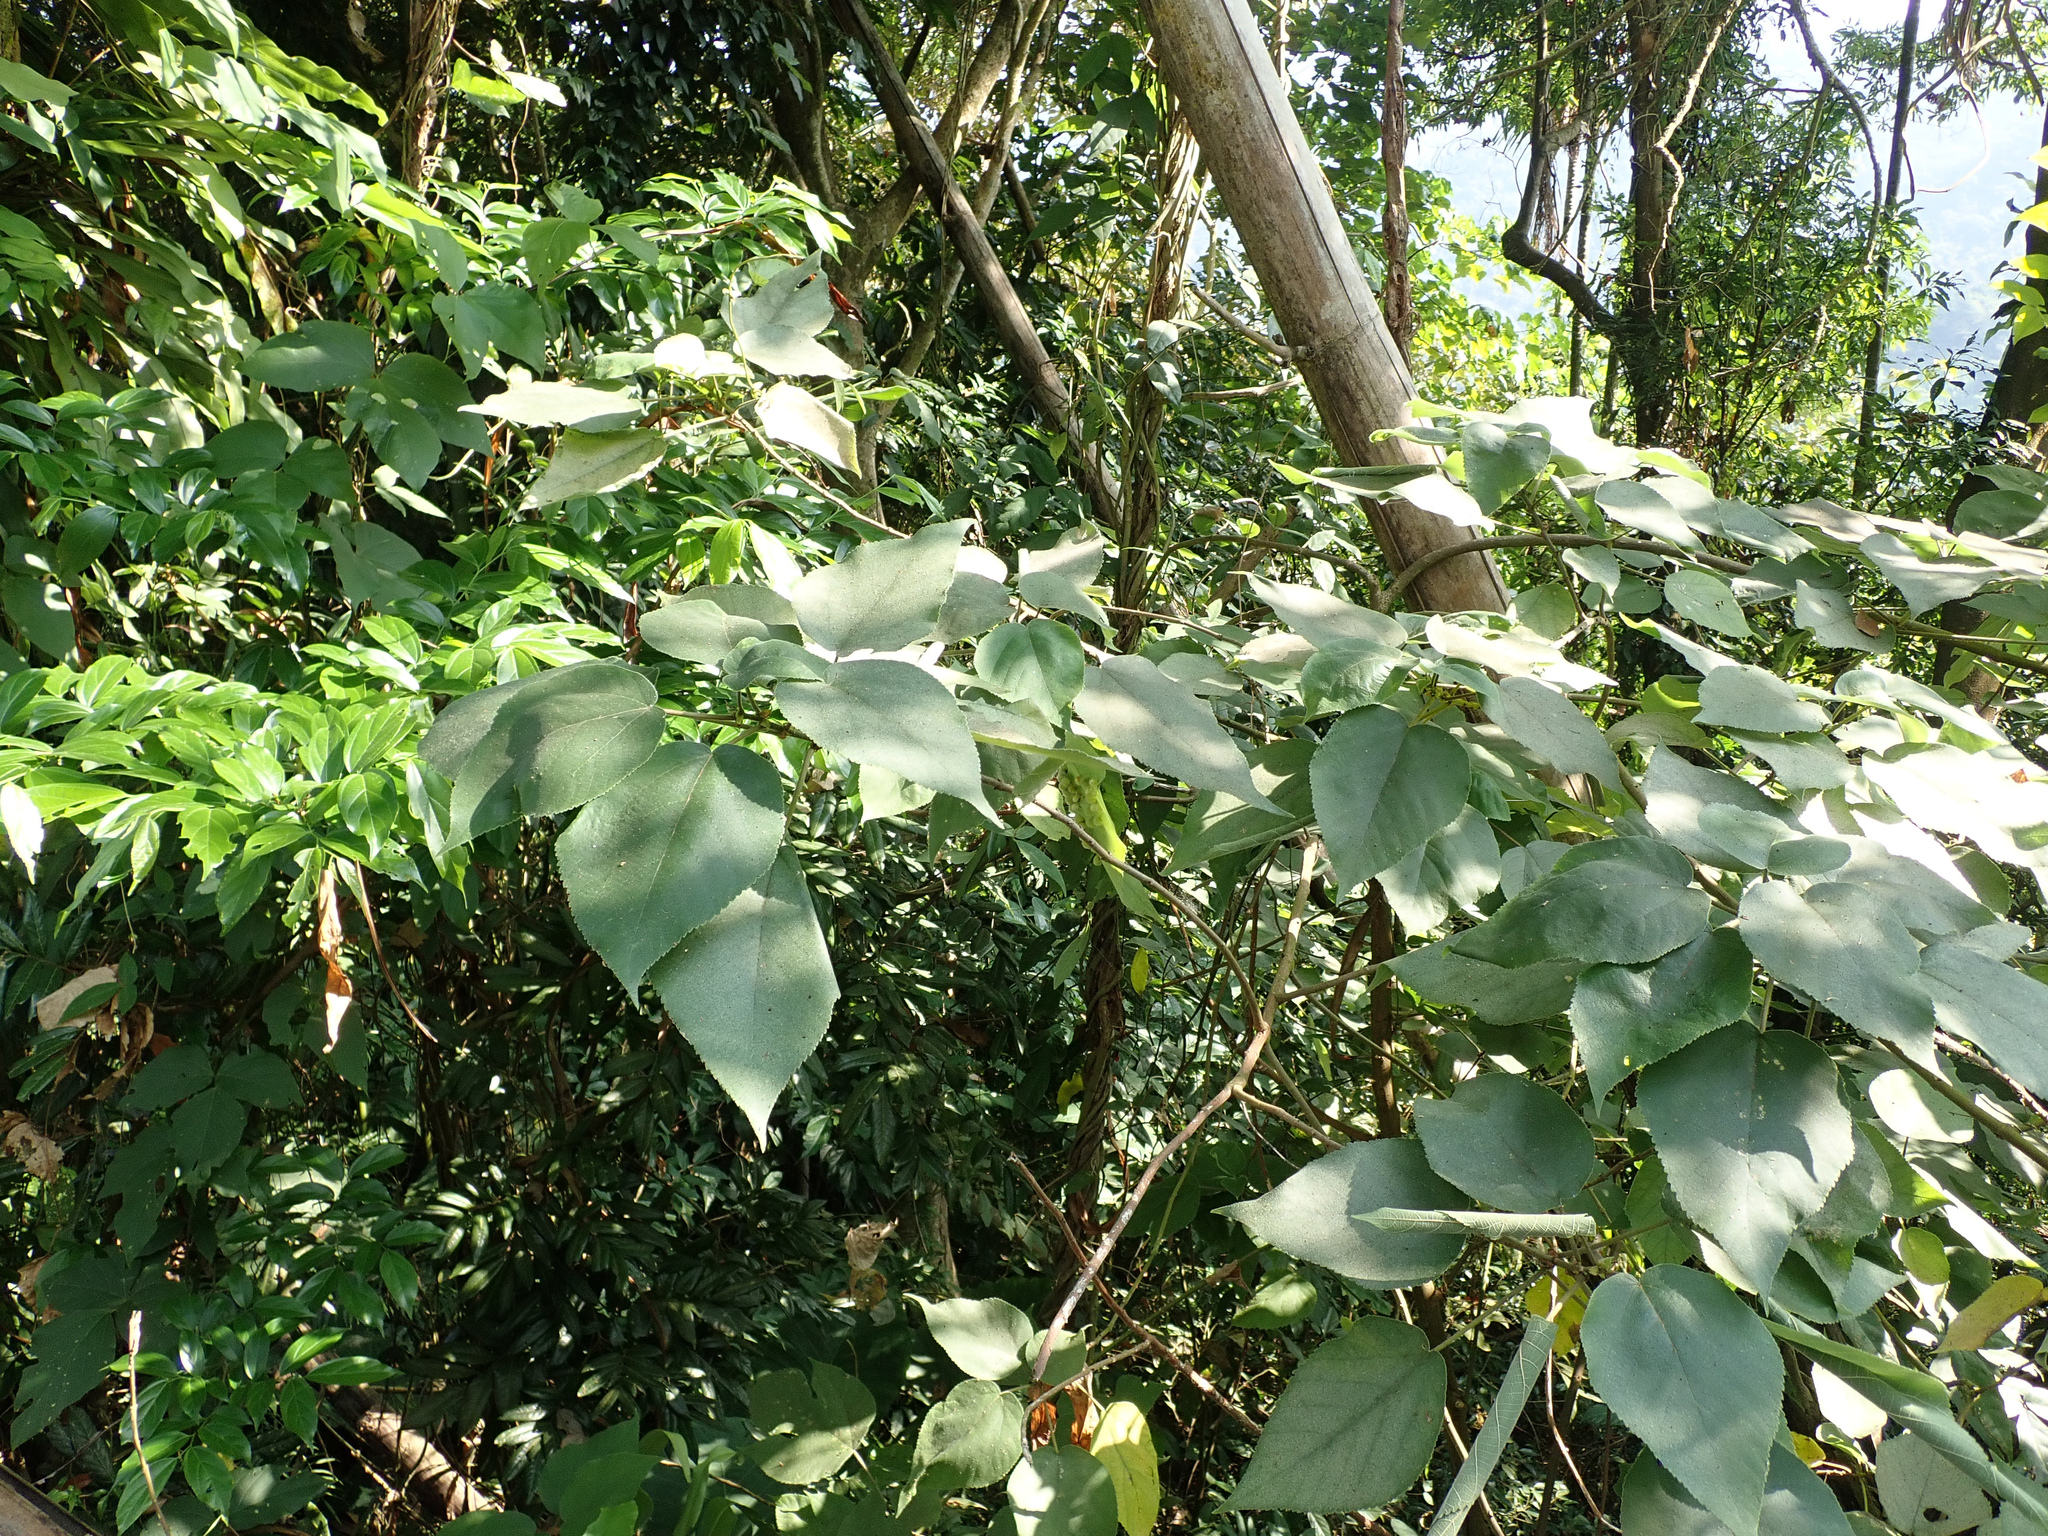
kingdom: Plantae
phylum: Tracheophyta
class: Magnoliopsida
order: Rosales
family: Moraceae
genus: Broussonetia
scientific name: Broussonetia papyrifera
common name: Paper mulberry
